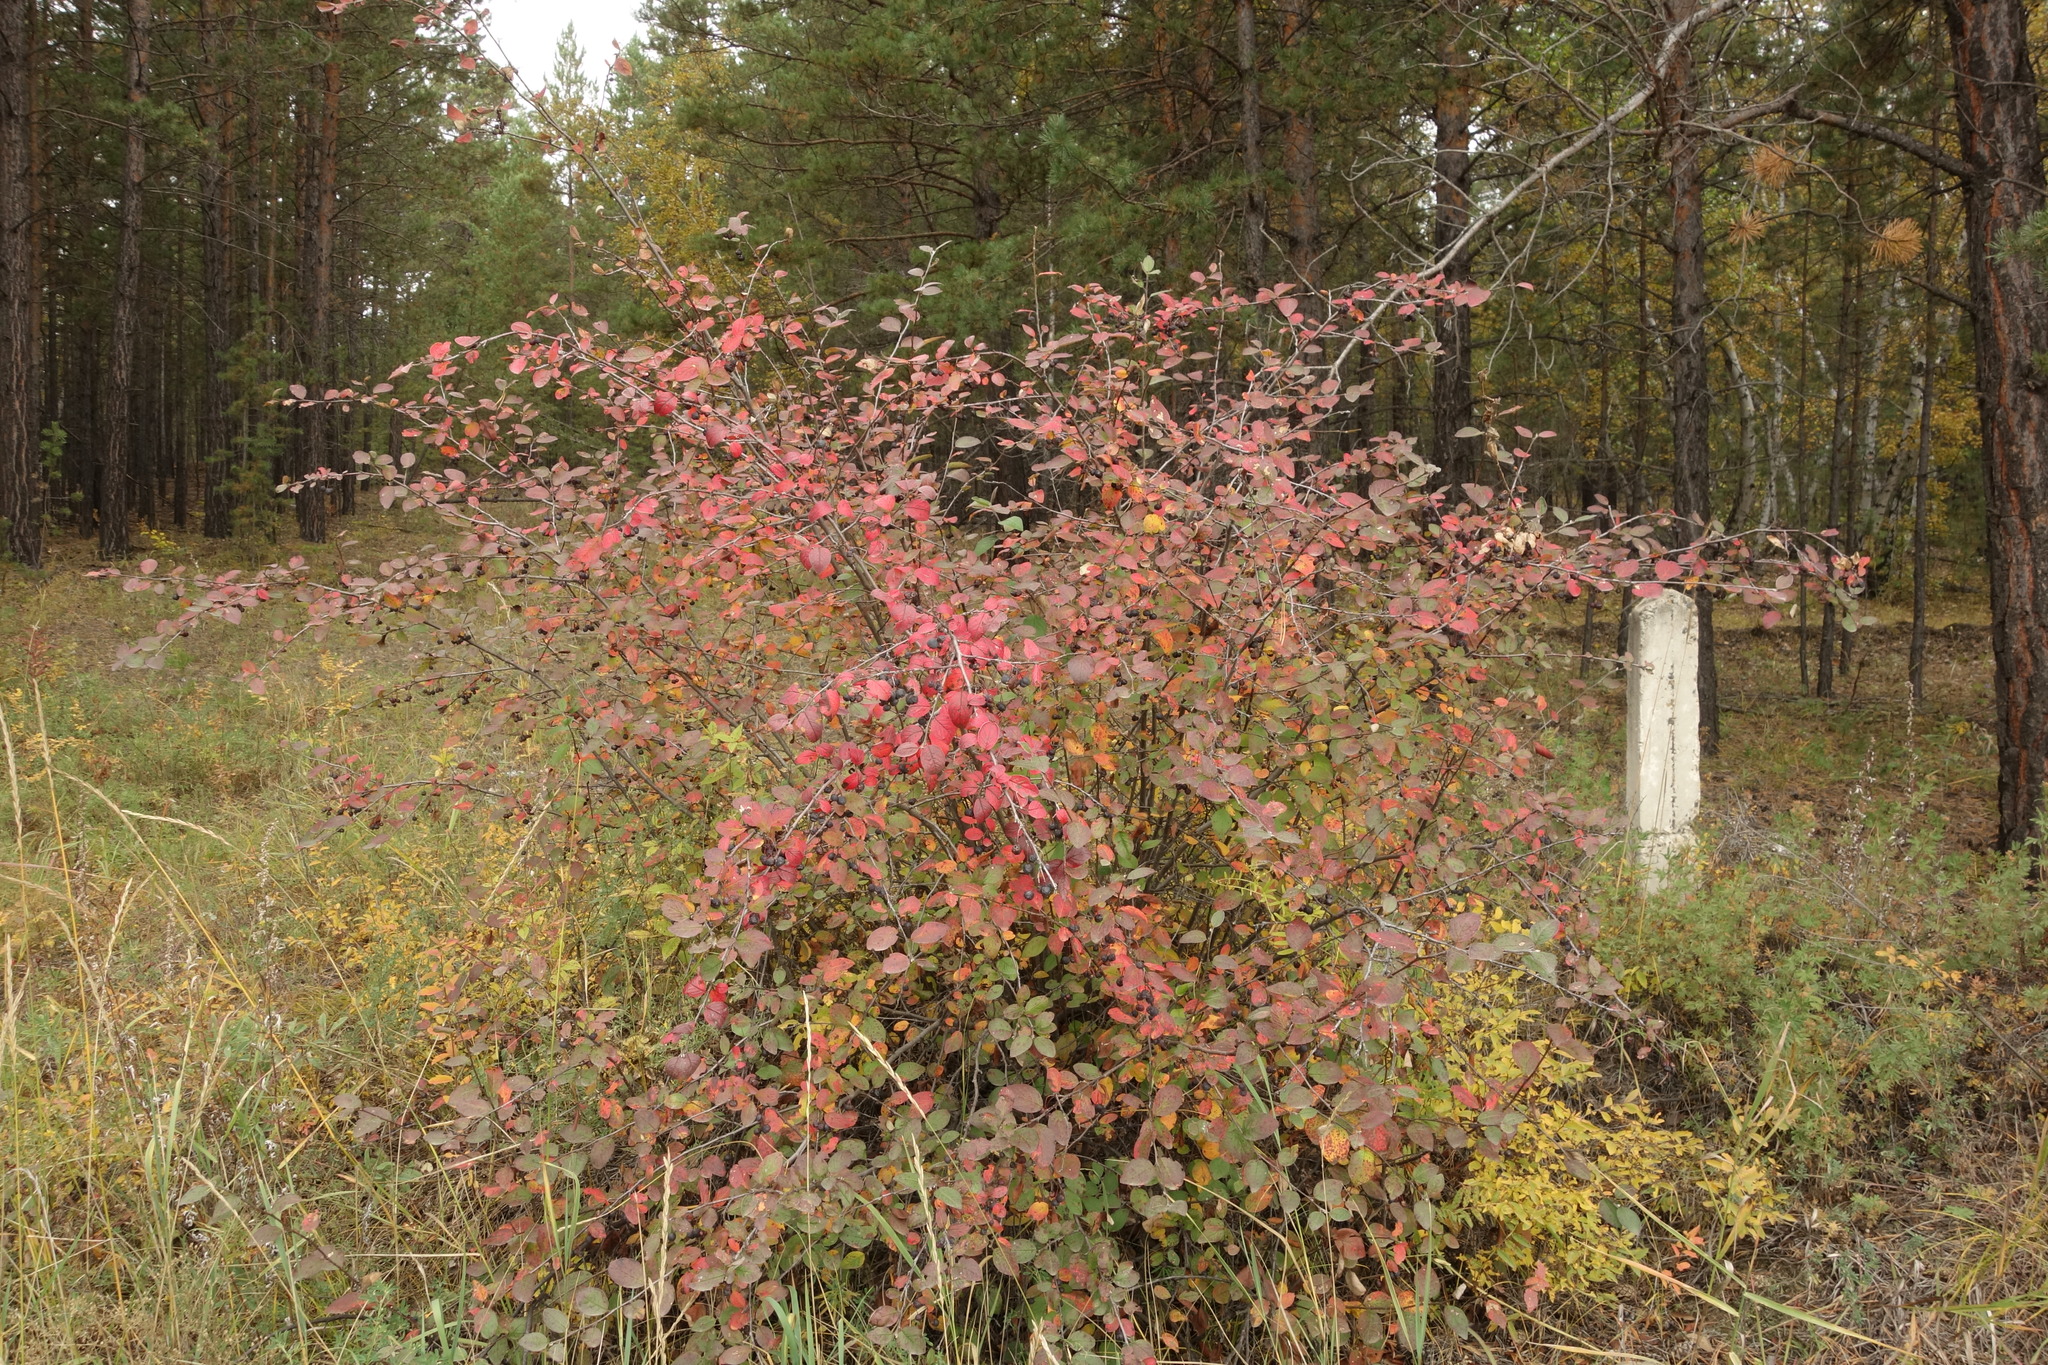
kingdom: Plantae
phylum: Tracheophyta
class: Magnoliopsida
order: Rosales
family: Rosaceae
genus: Cotoneaster
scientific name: Cotoneaster melanocarpus
